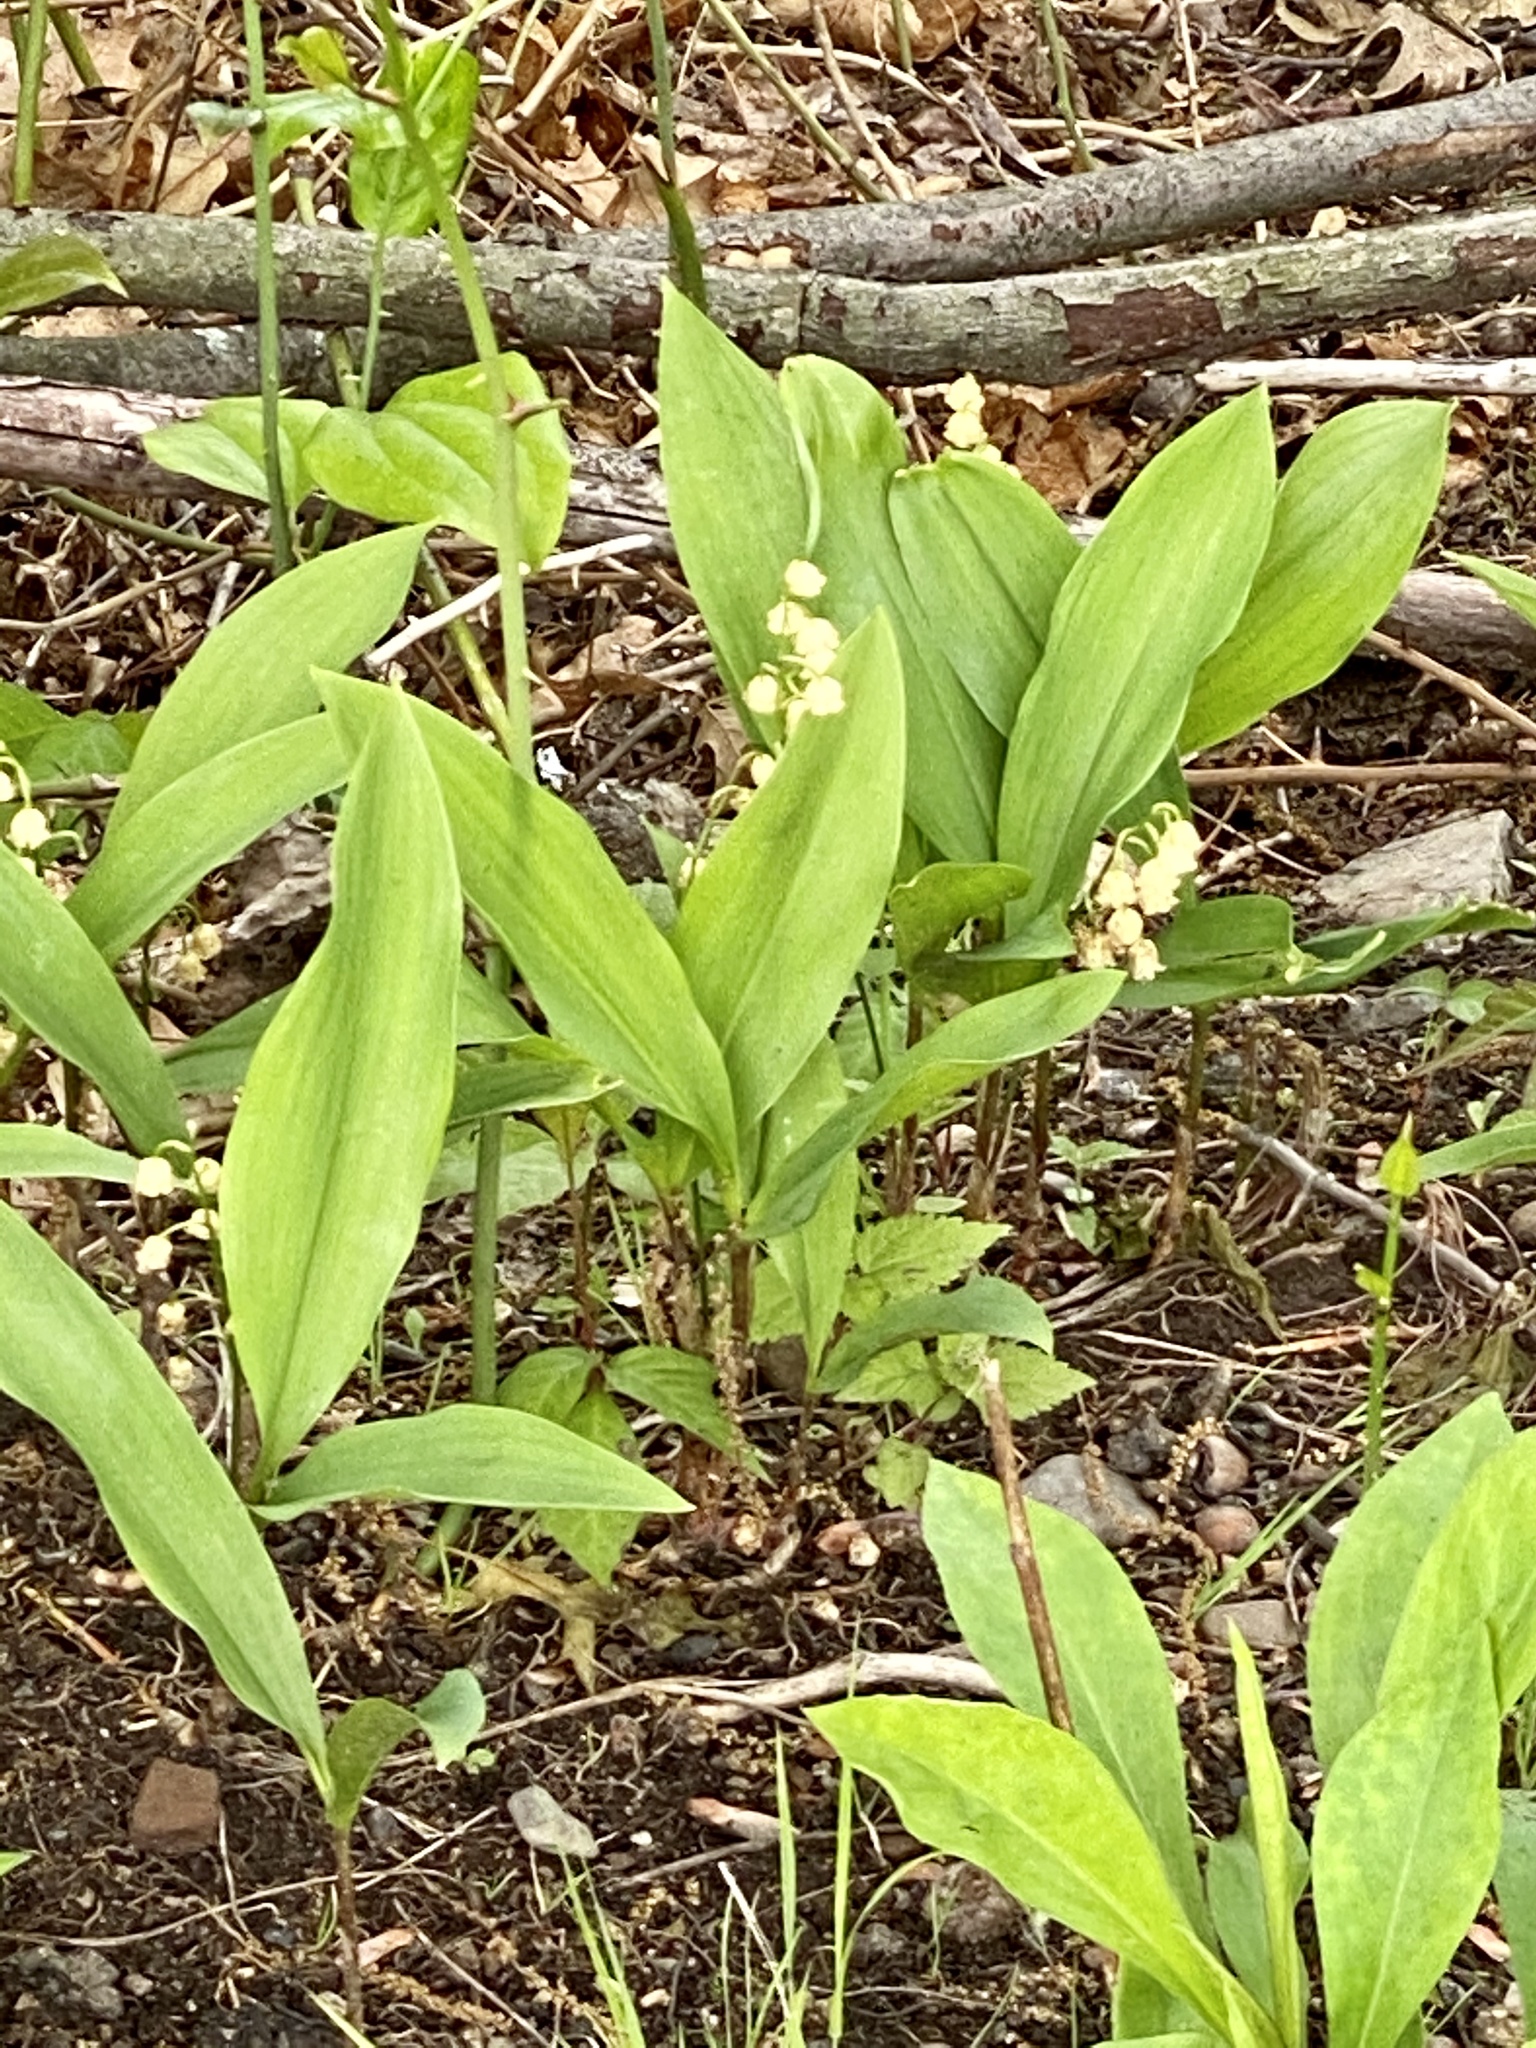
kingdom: Plantae
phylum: Tracheophyta
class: Liliopsida
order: Asparagales
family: Asparagaceae
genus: Convallaria
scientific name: Convallaria majalis
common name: Lily-of-the-valley
